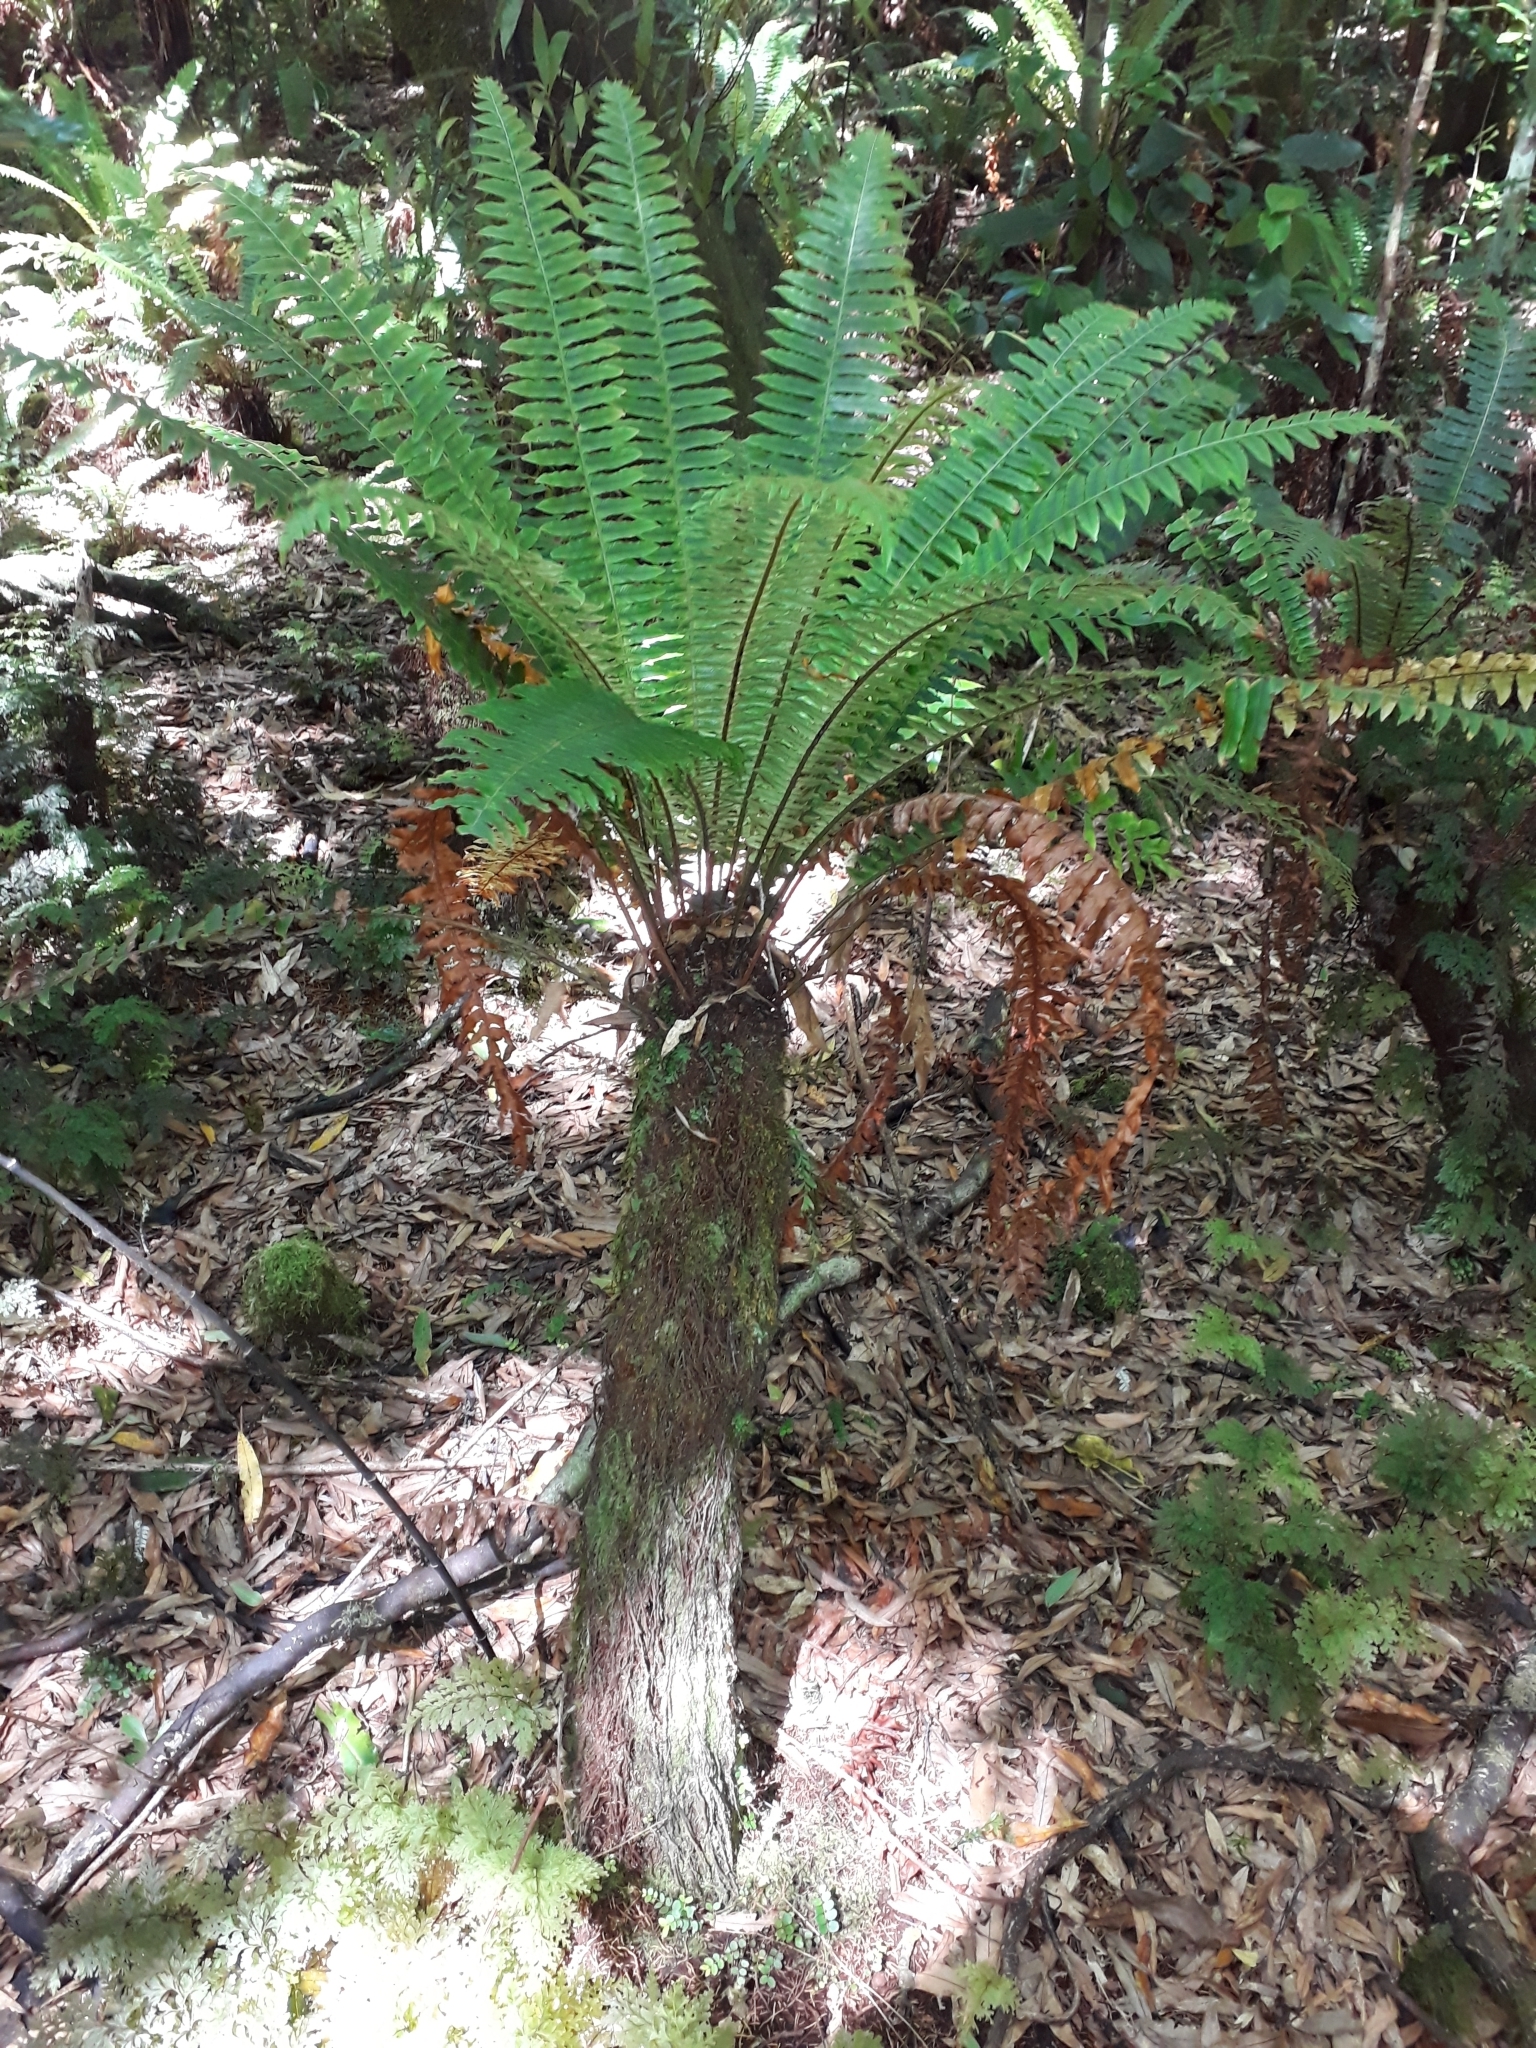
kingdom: Plantae
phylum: Tracheophyta
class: Polypodiopsida
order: Psilotales
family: Psilotaceae
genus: Tmesipteris
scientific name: Tmesipteris elongata
